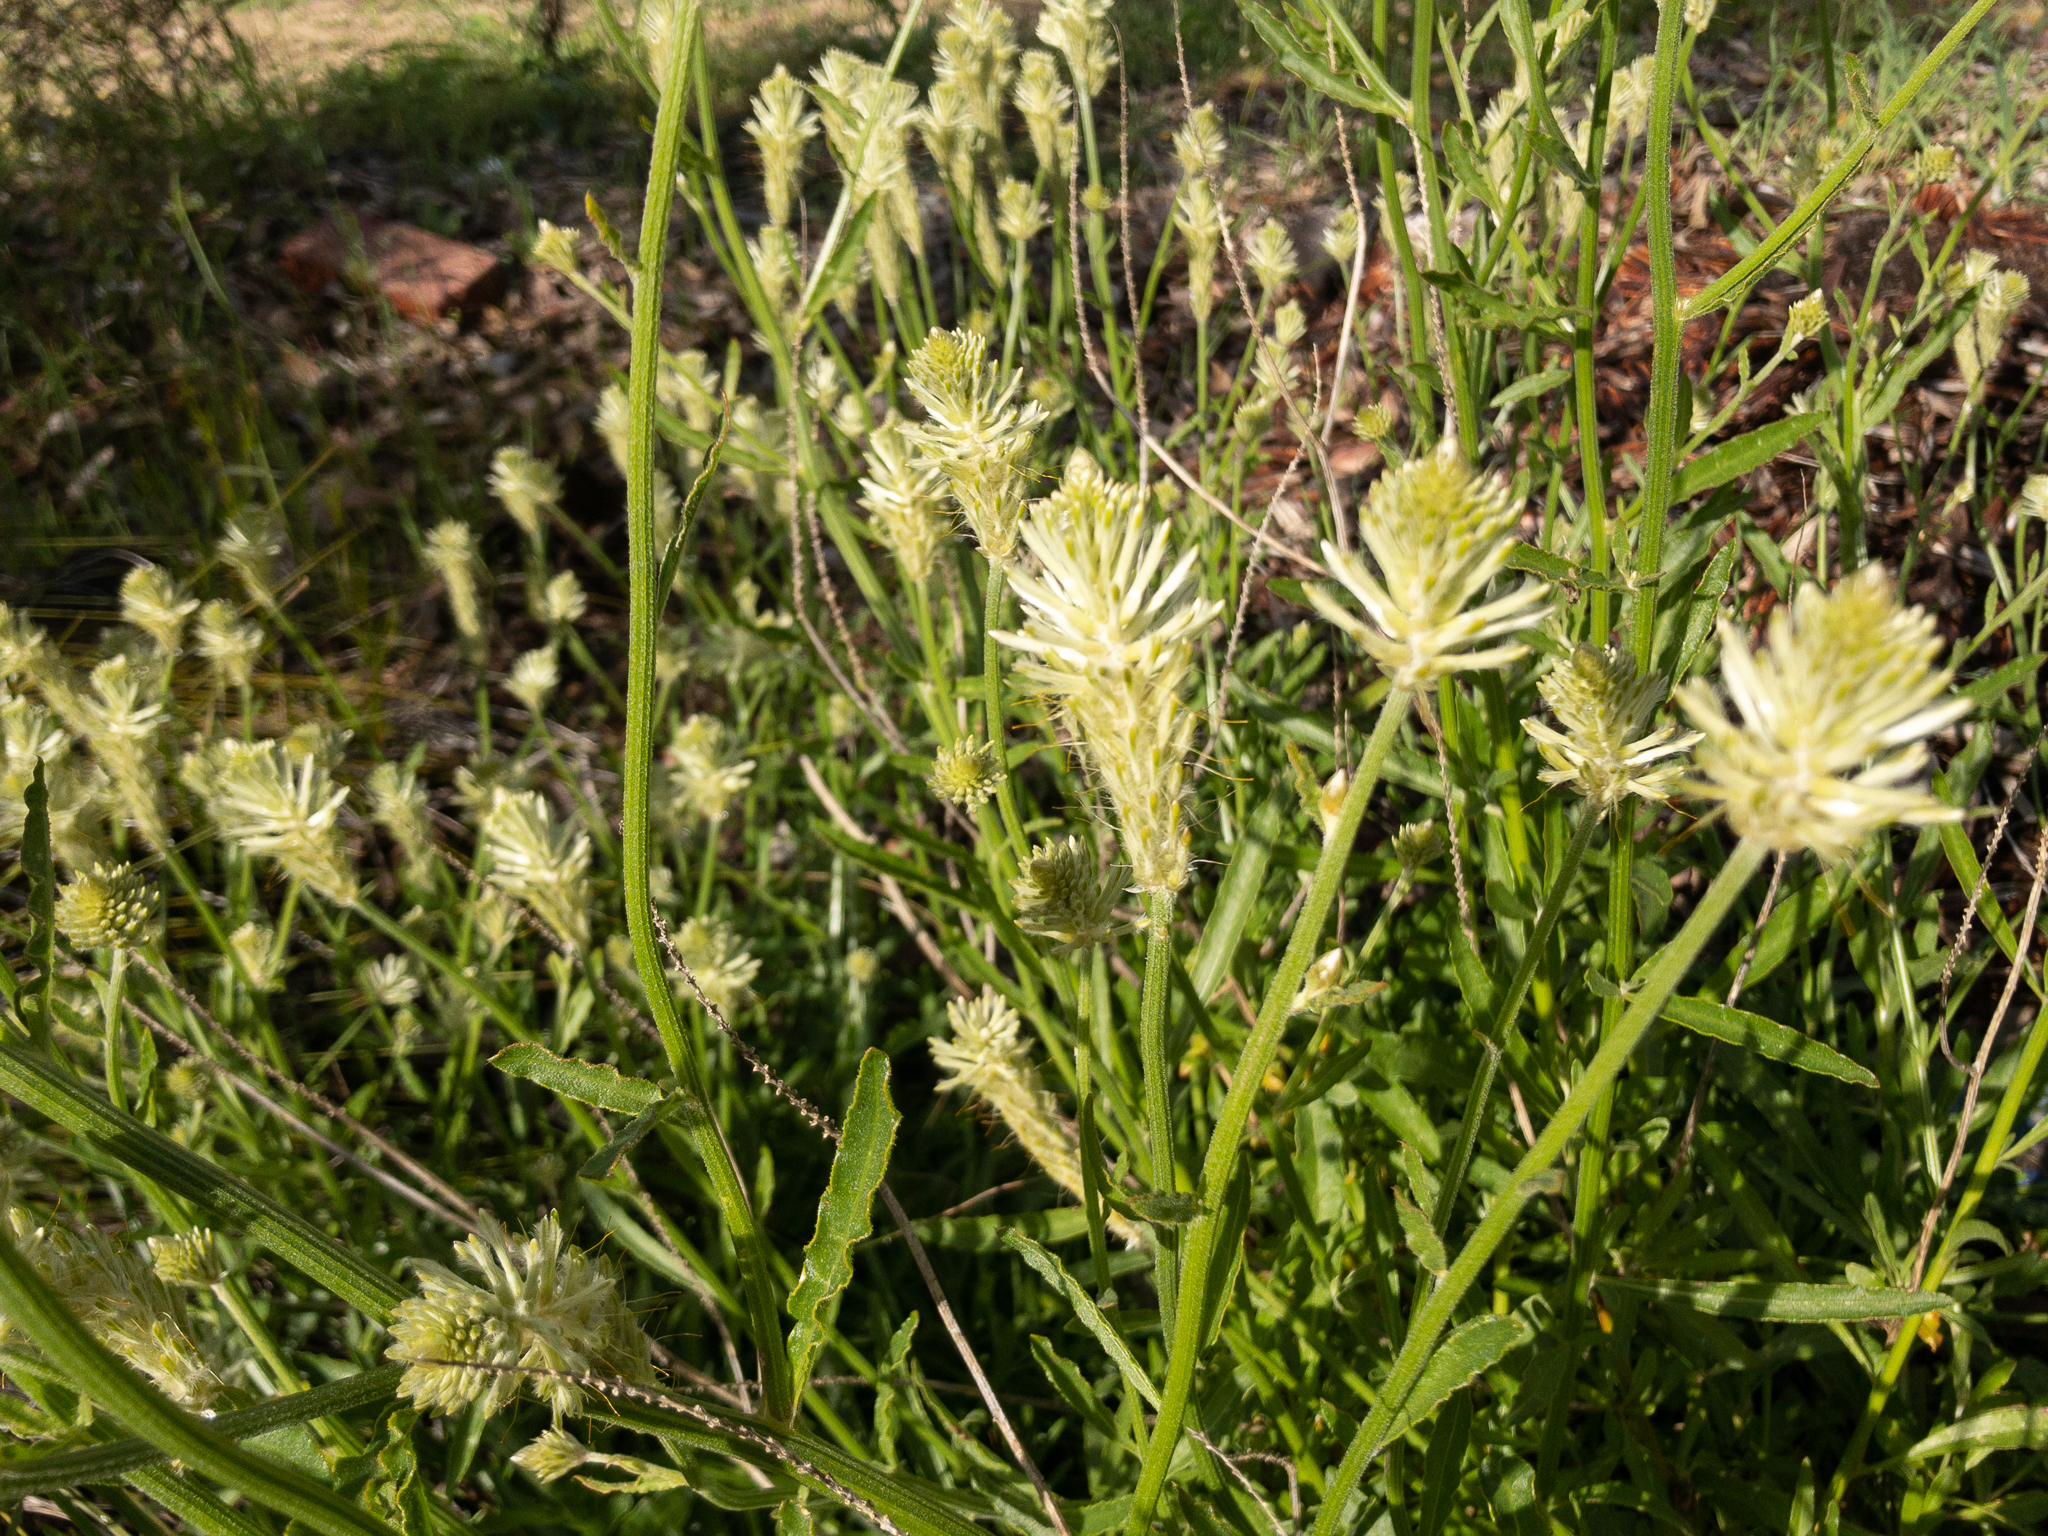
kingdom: Plantae
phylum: Tracheophyta
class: Magnoliopsida
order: Caryophyllales
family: Amaranthaceae
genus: Ptilotus
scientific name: Ptilotus polystachyus
